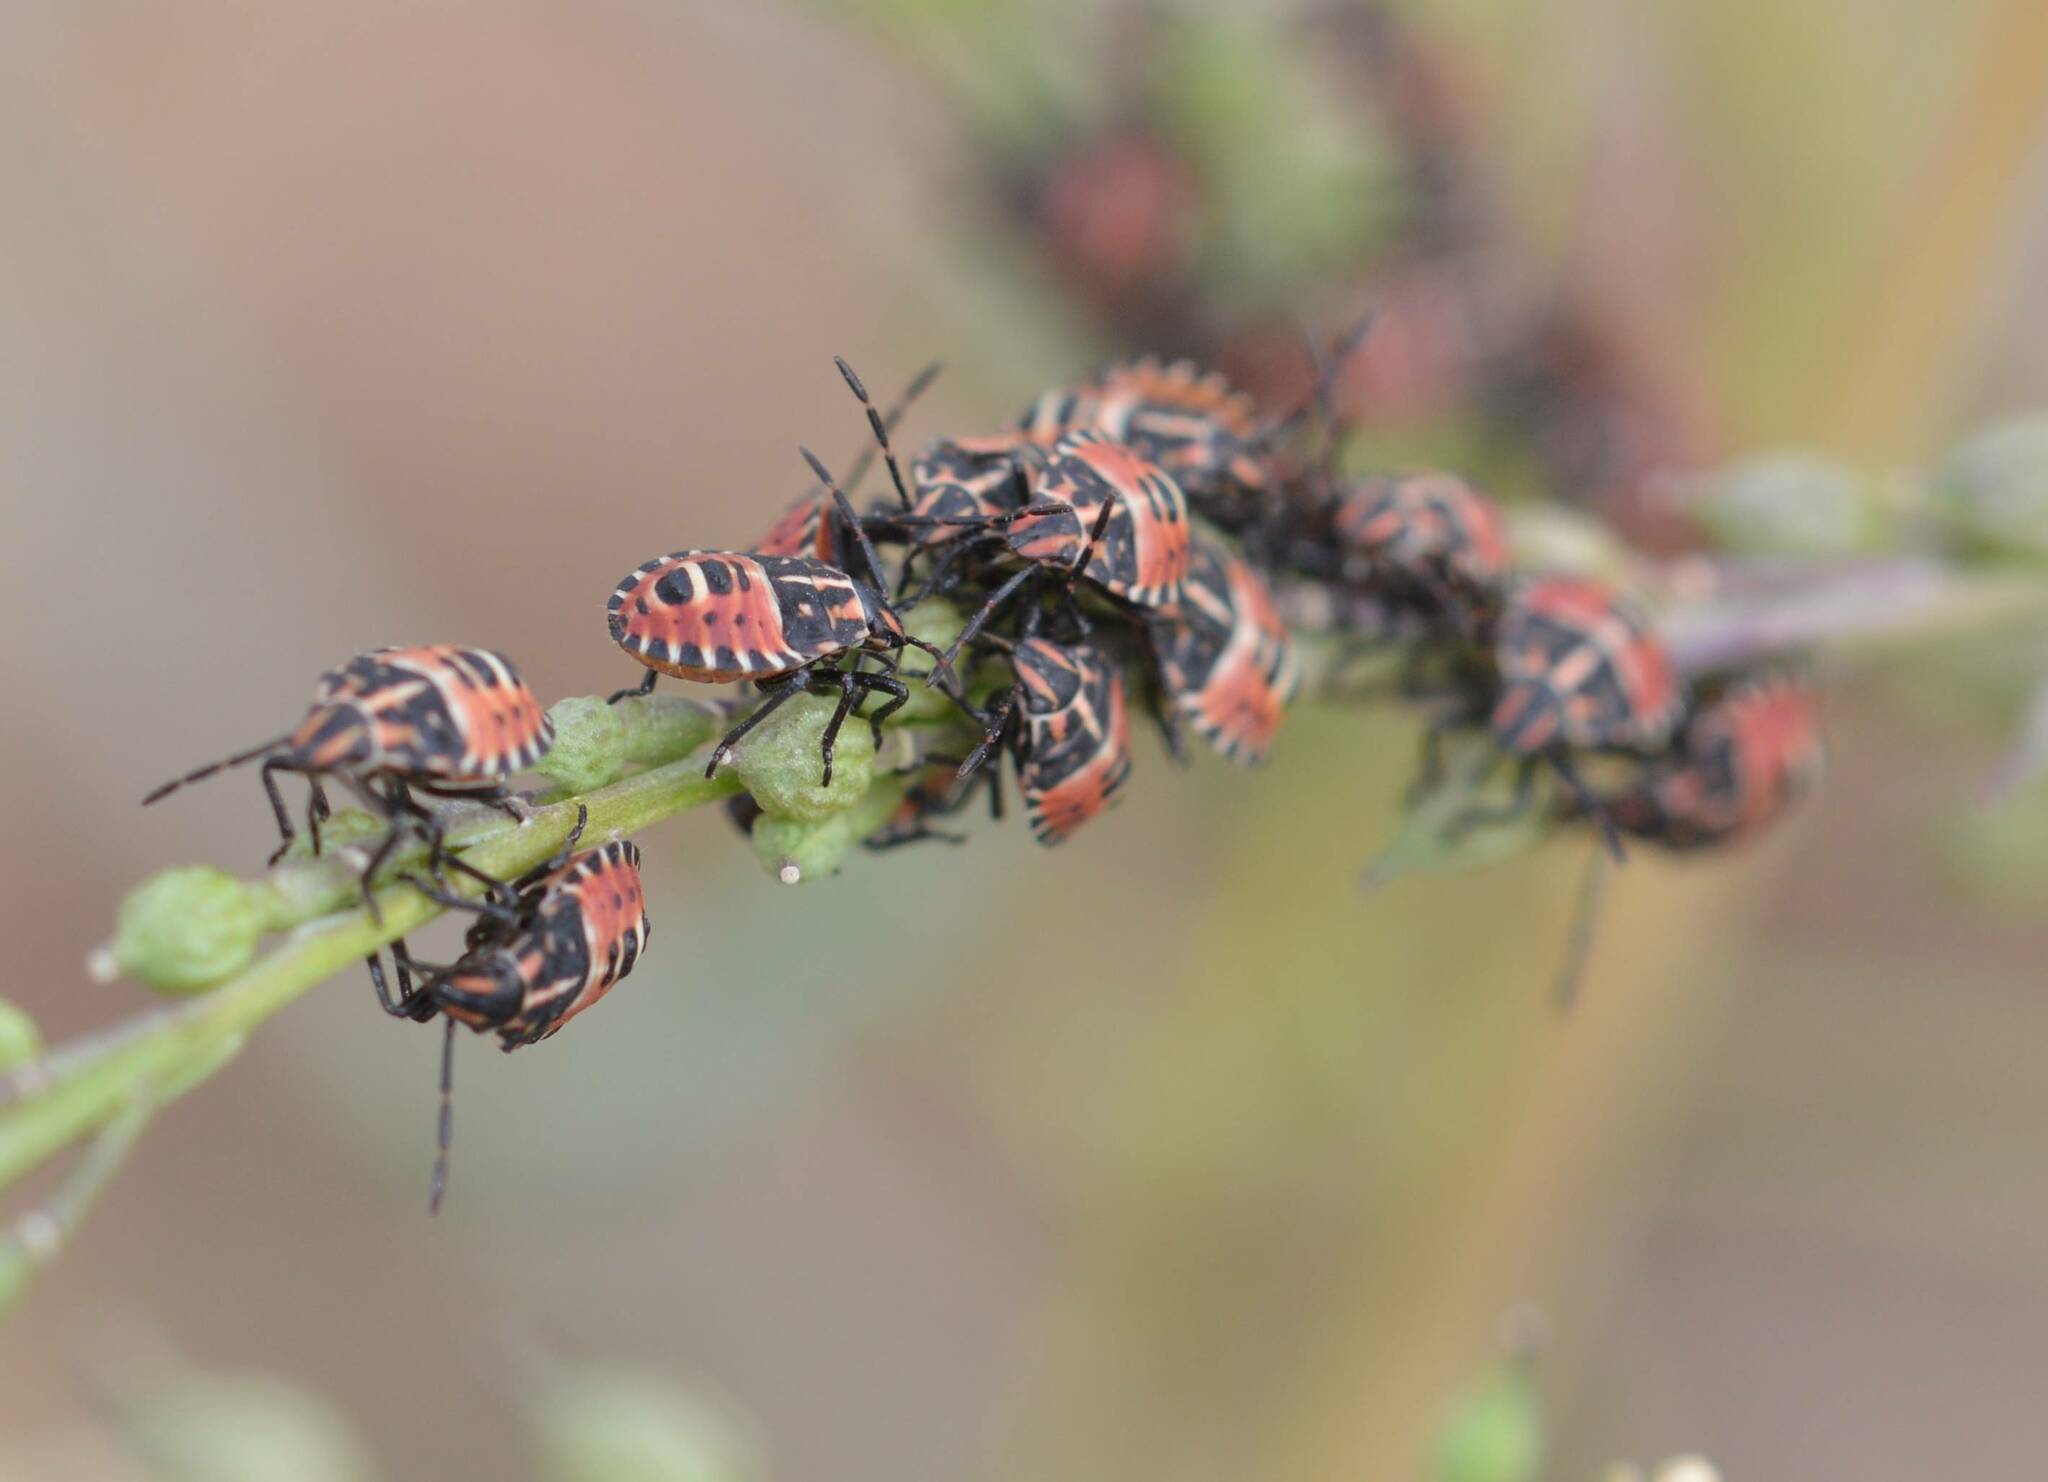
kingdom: Animalia
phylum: Arthropoda
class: Insecta
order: Hemiptera
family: Miridae
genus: Orthops
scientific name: Orthops kalmii
